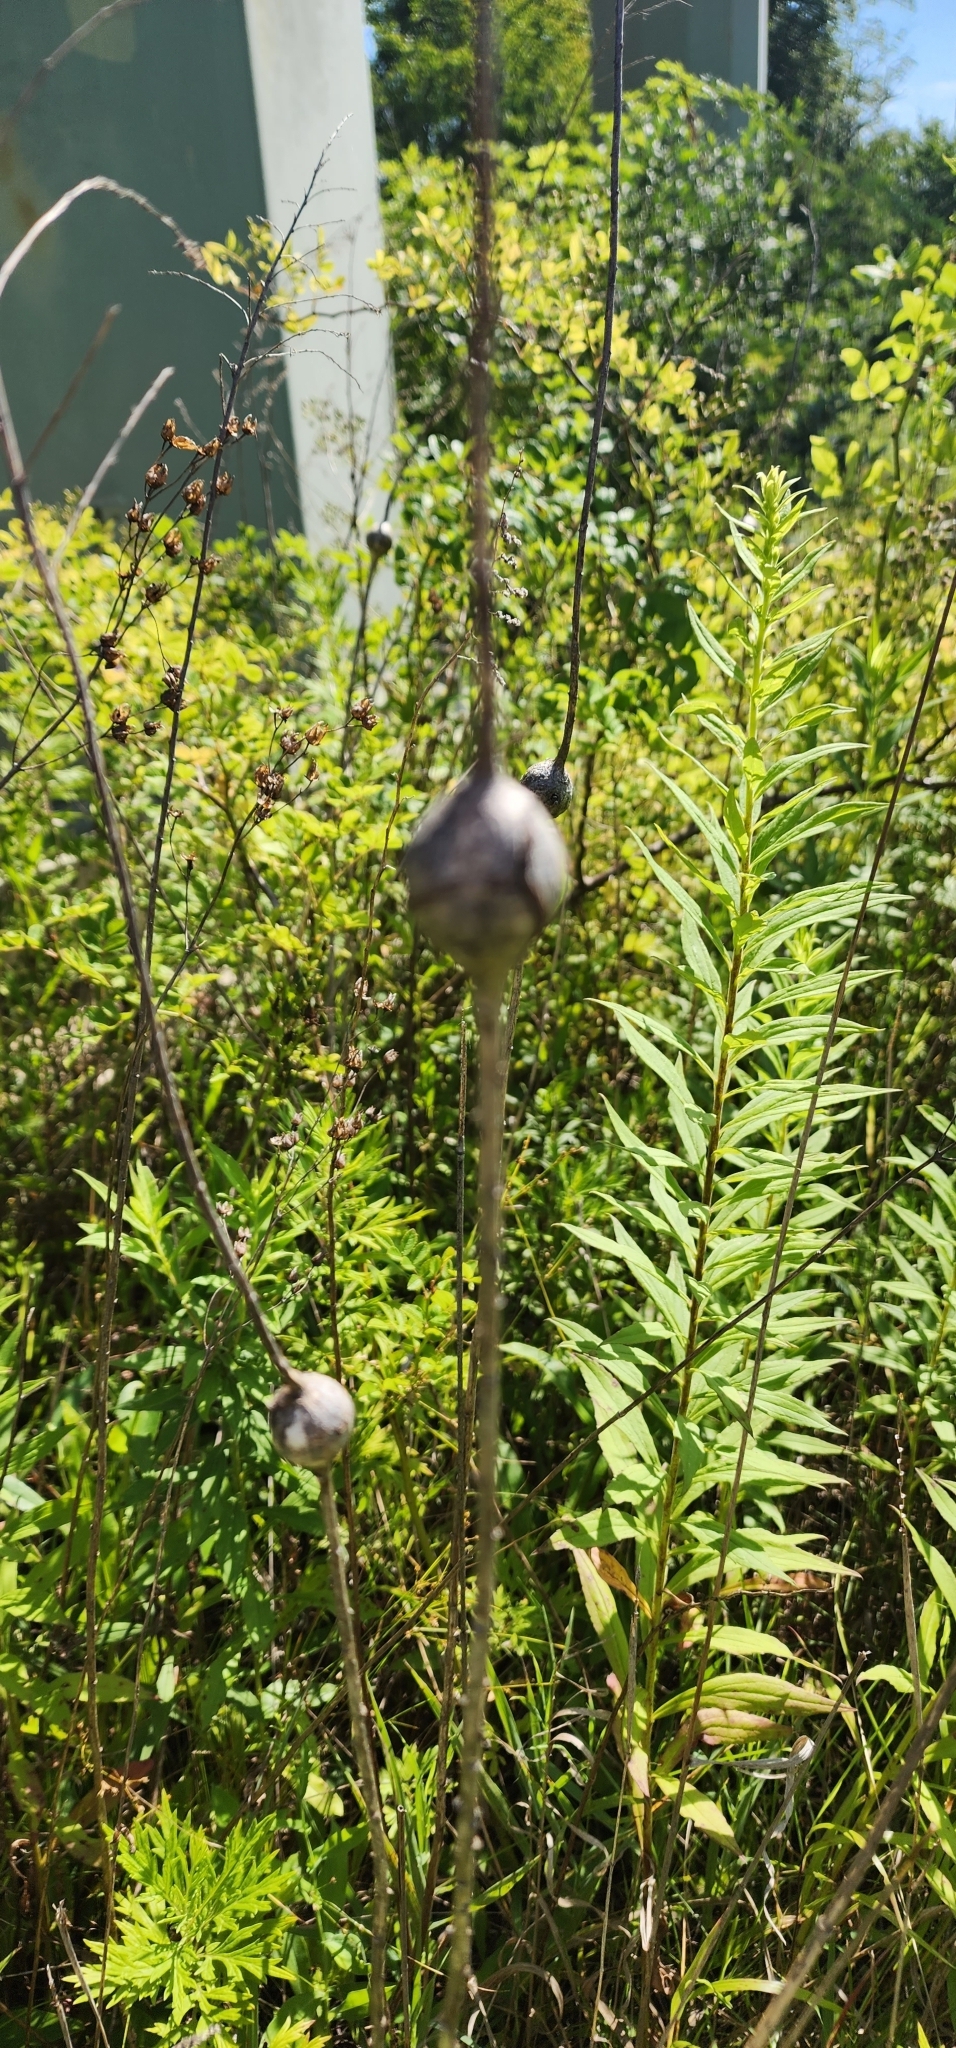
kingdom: Animalia
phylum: Arthropoda
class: Insecta
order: Diptera
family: Tephritidae
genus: Eurosta
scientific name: Eurosta solidaginis
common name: Goldenrod gall fly
